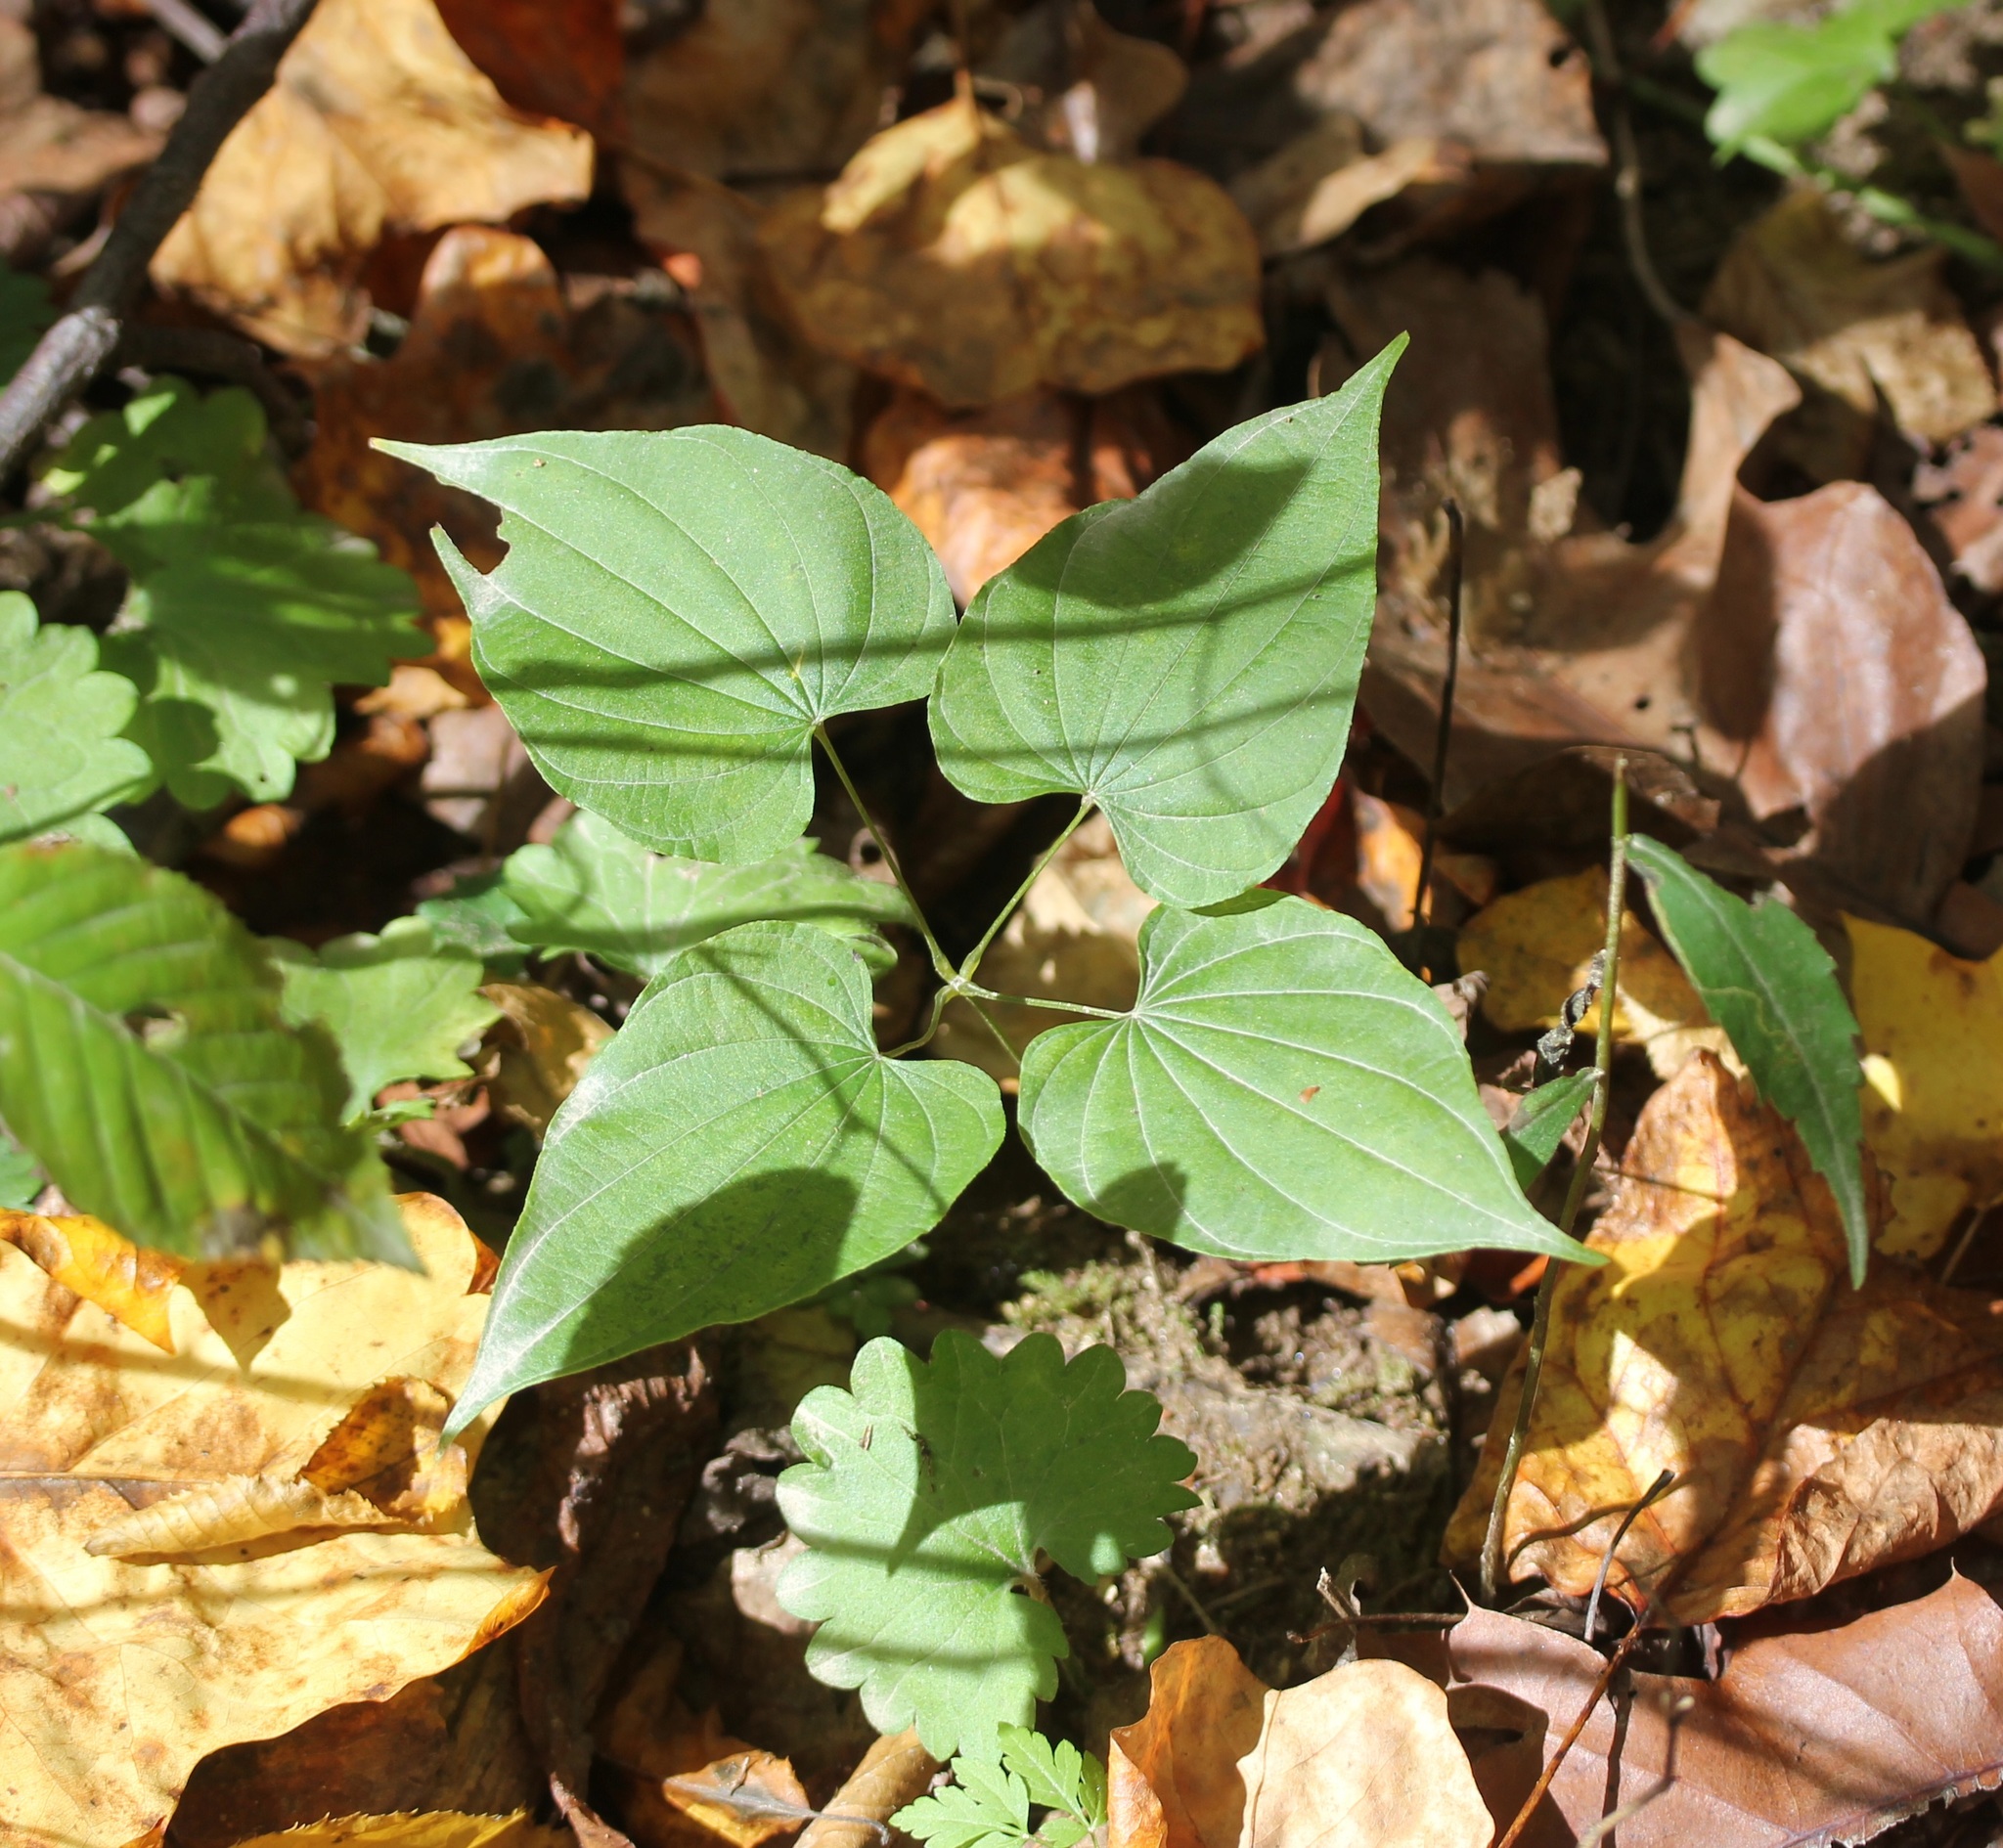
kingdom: Plantae
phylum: Tracheophyta
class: Liliopsida
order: Dioscoreales
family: Dioscoreaceae
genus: Dioscorea
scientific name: Dioscorea villosa
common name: Wild yam
